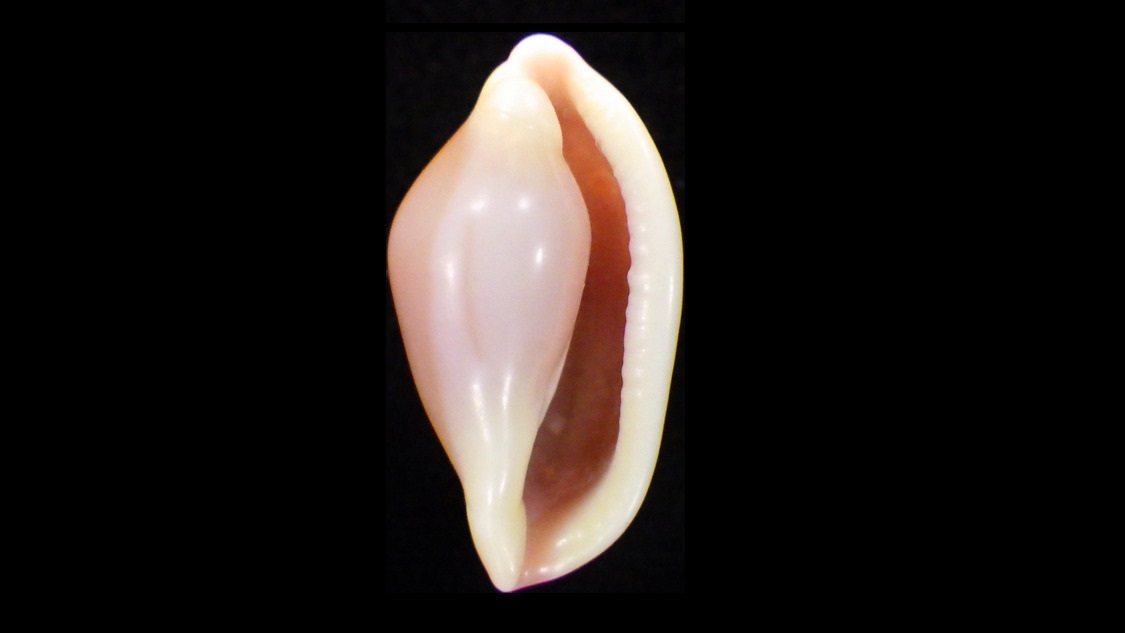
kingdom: Animalia
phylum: Mollusca
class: Gastropoda
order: Littorinimorpha
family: Ovulidae
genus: Sandalia
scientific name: Sandalia triticea
